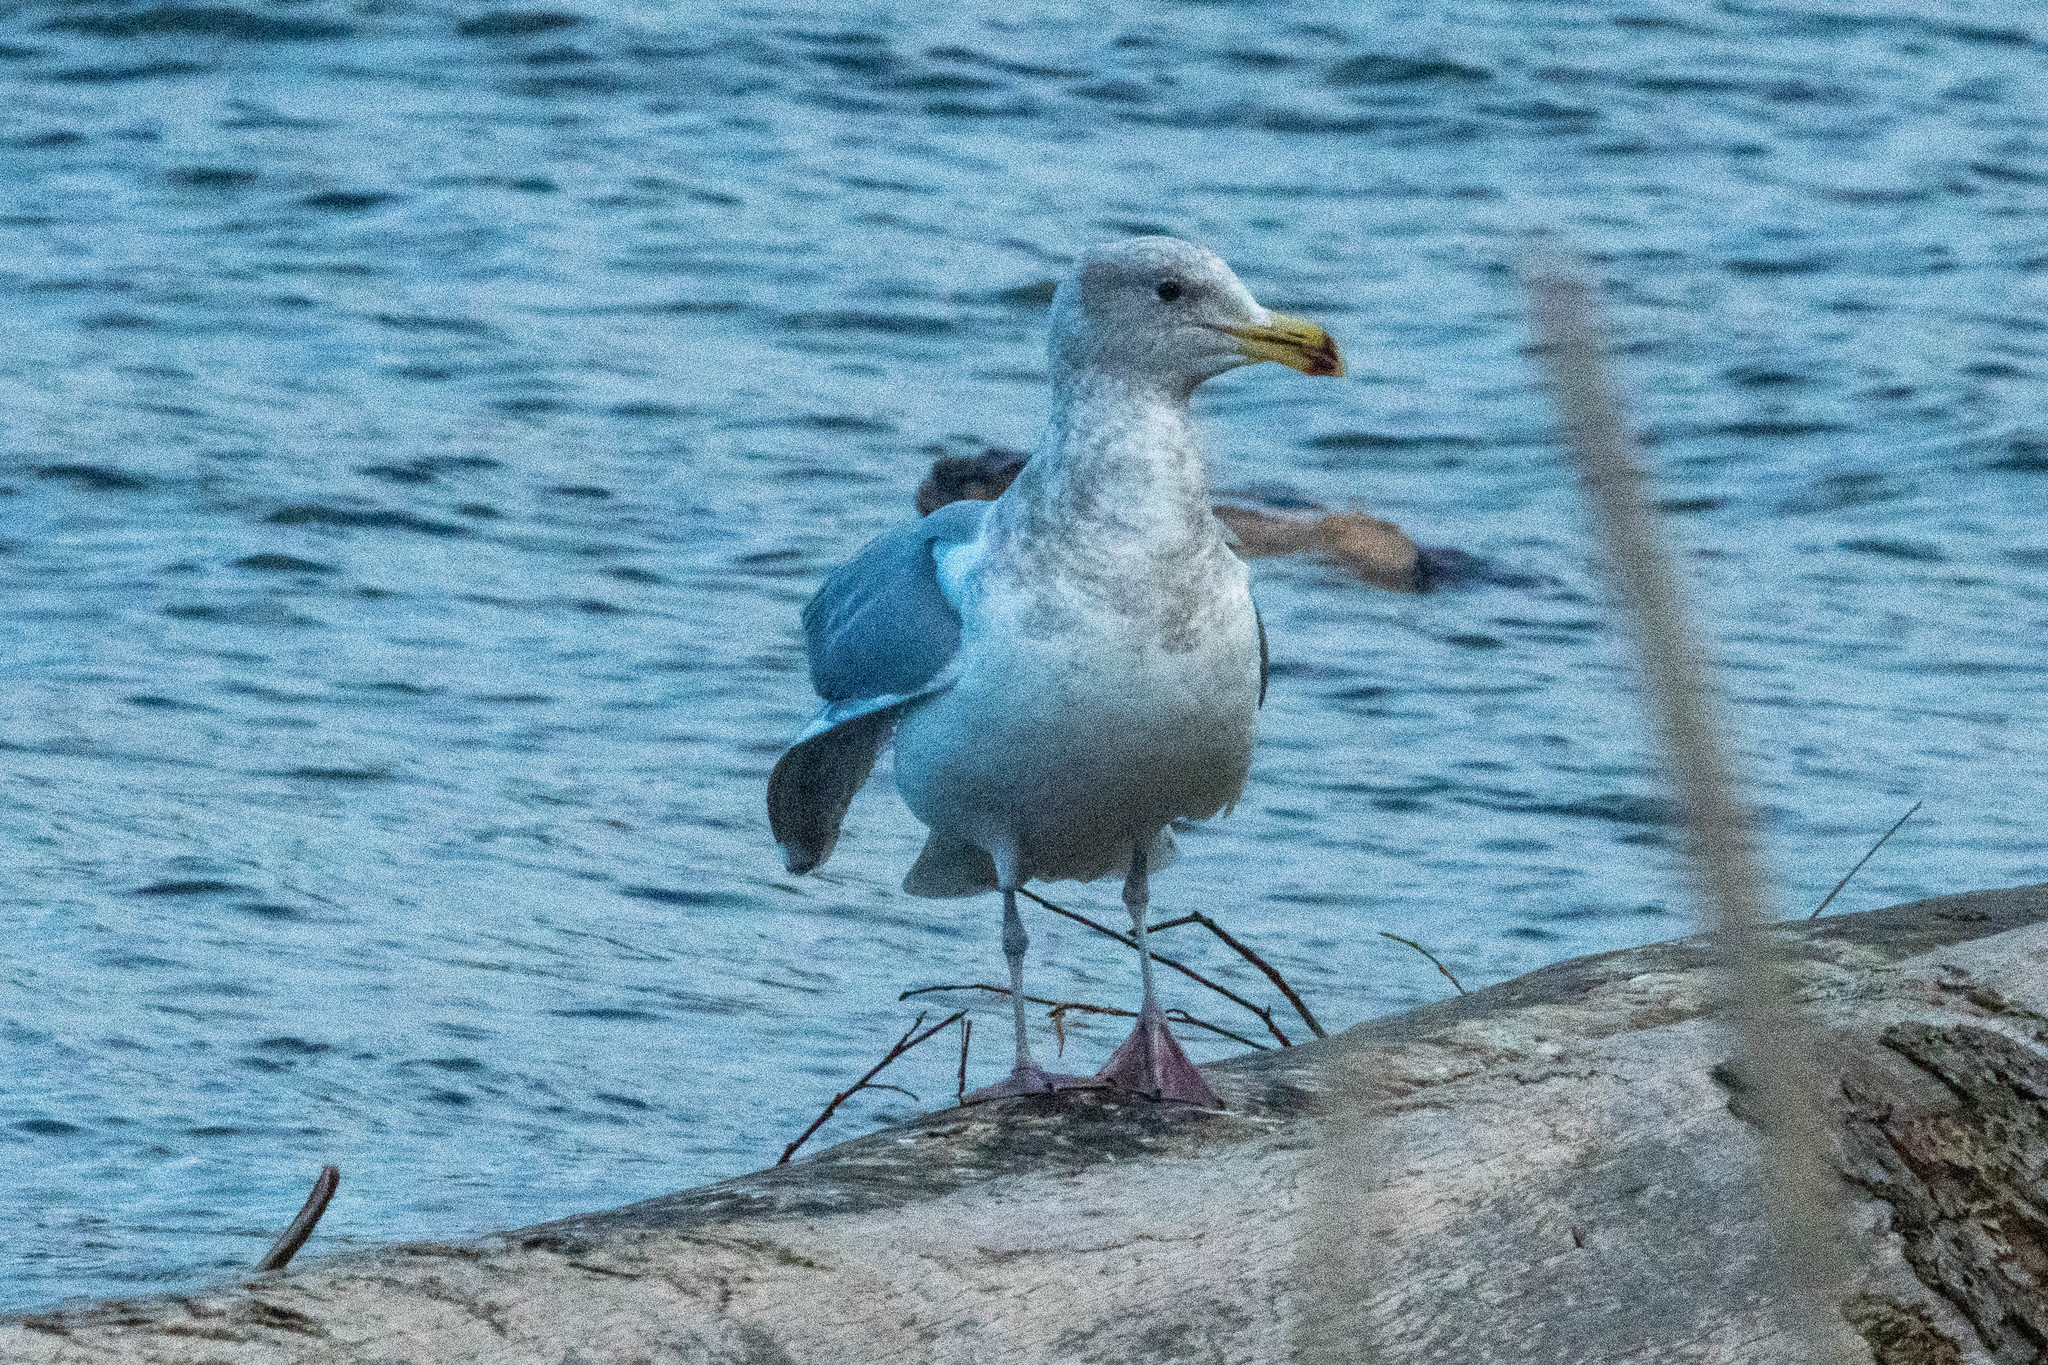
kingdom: Animalia
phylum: Chordata
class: Aves
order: Charadriiformes
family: Laridae
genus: Larus
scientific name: Larus glaucescens
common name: Glaucous-winged gull
